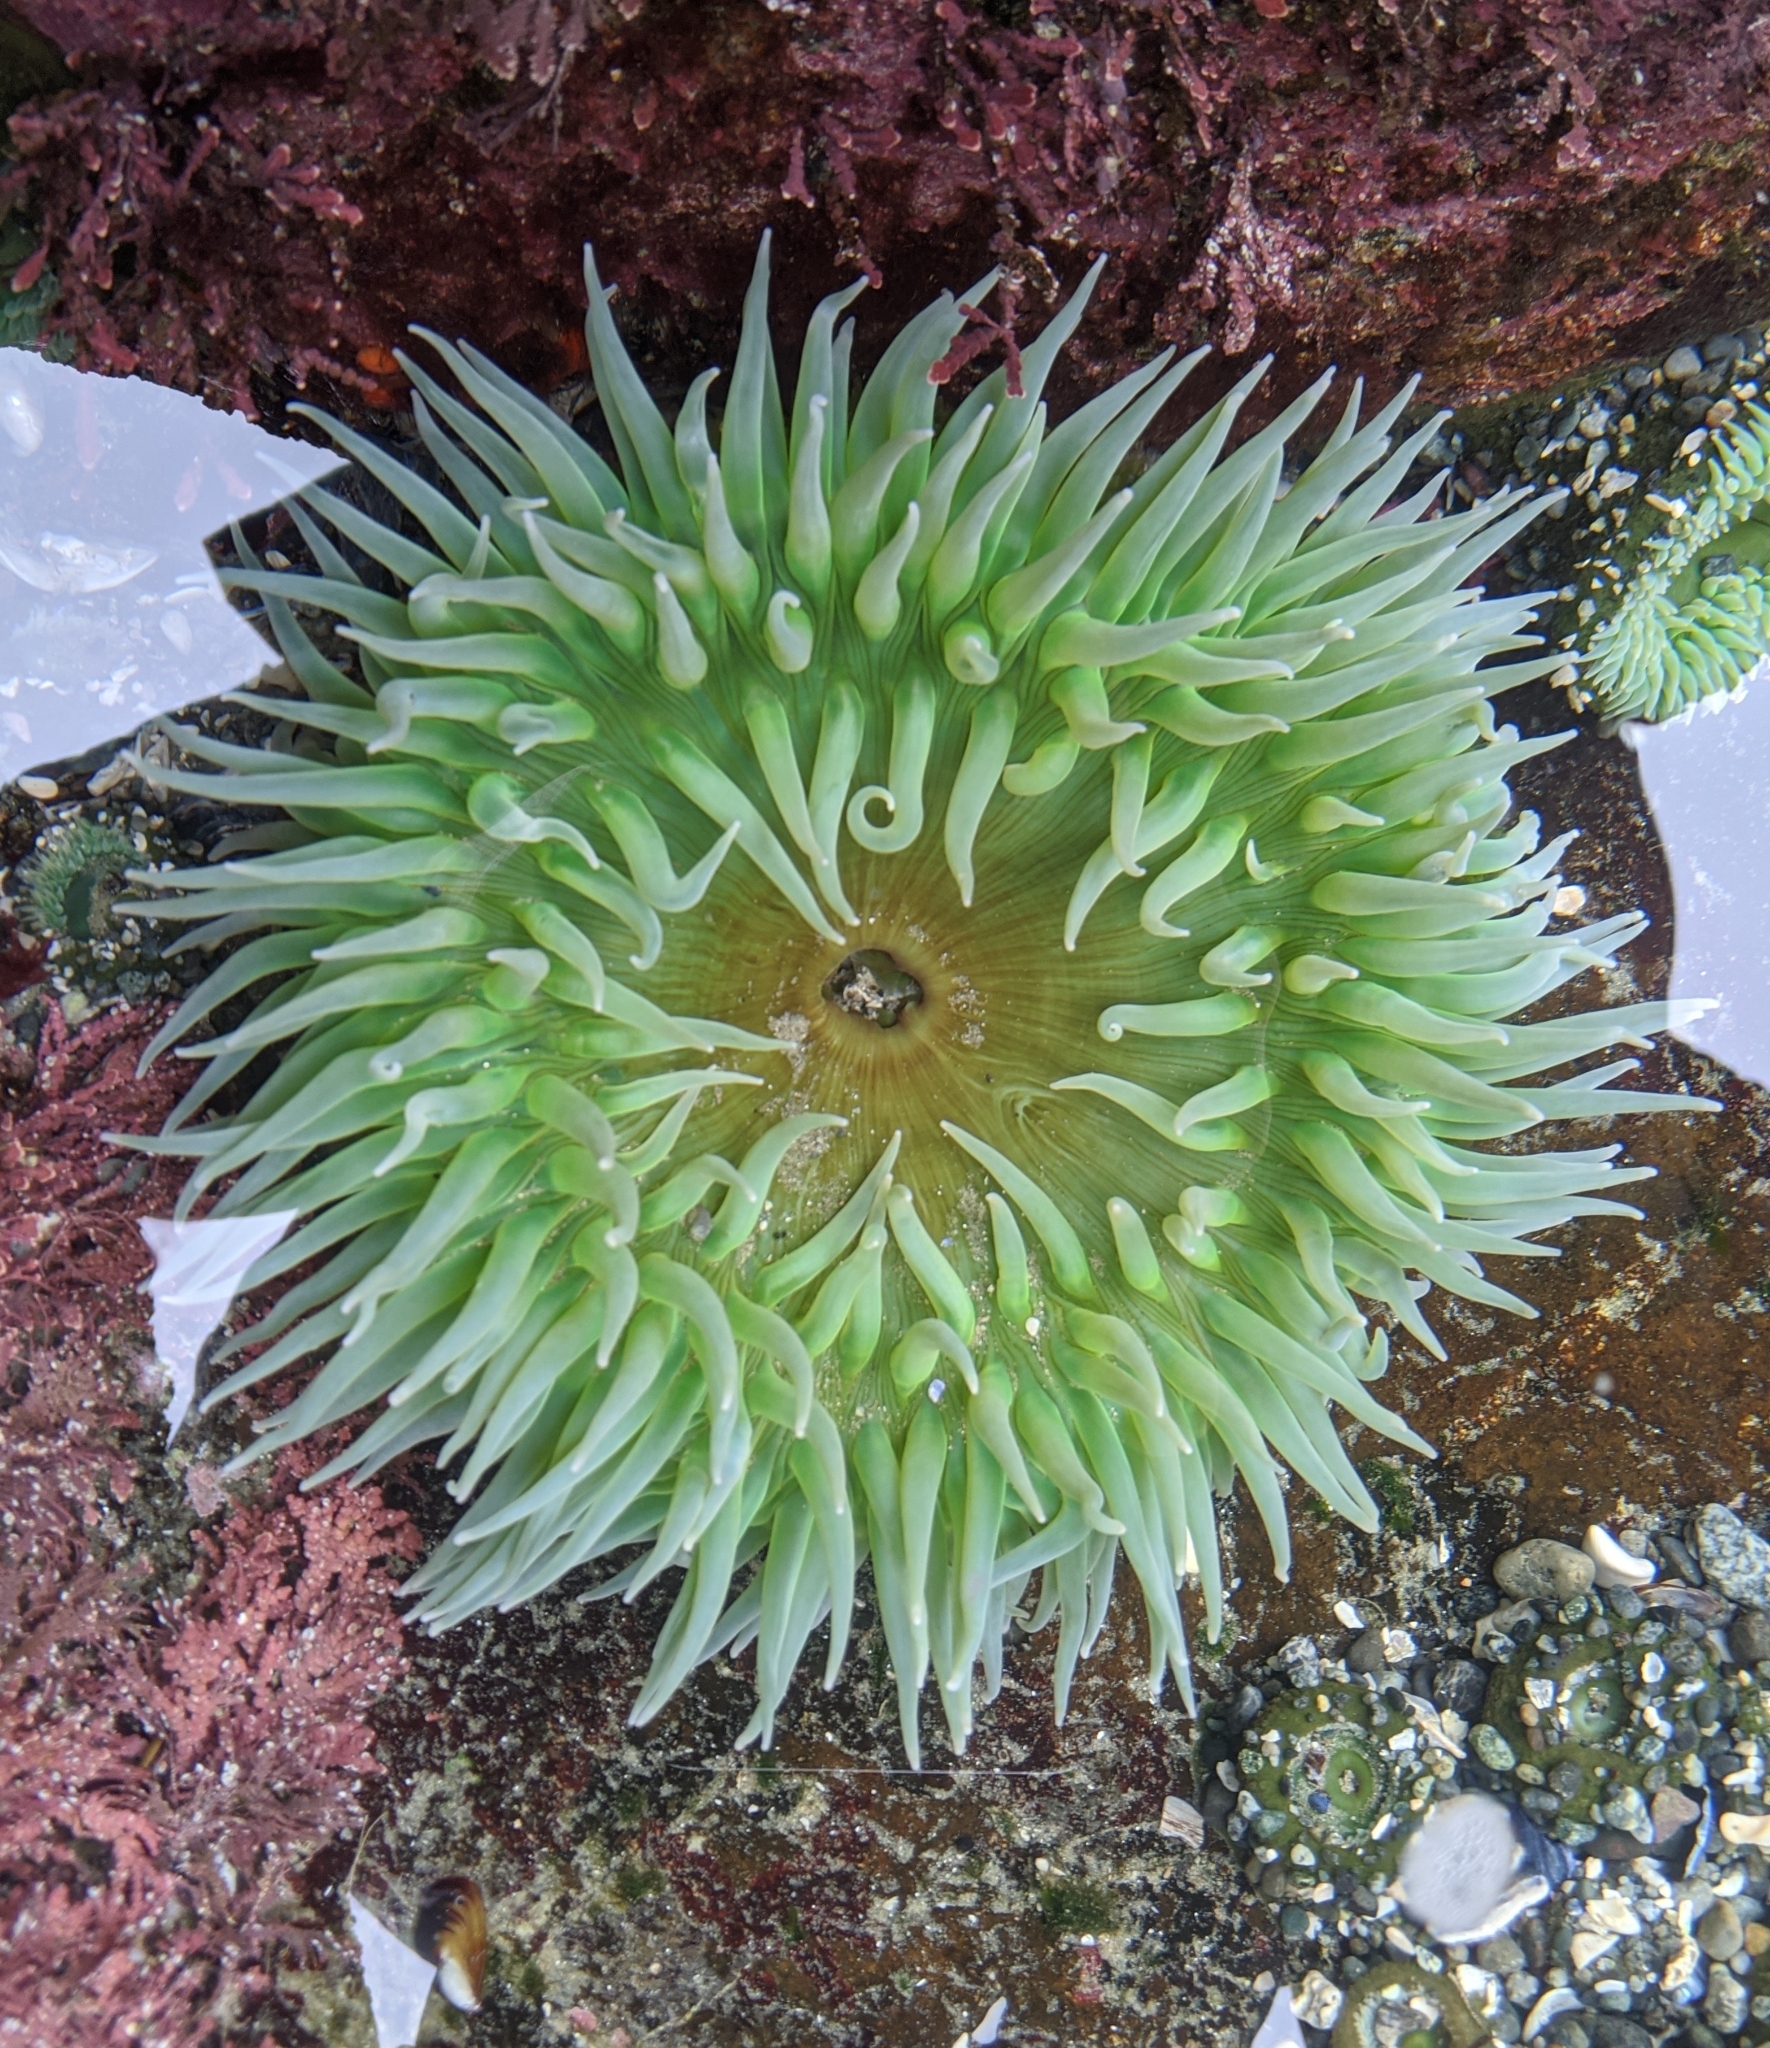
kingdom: Animalia
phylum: Cnidaria
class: Anthozoa
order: Actiniaria
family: Actiniidae
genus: Anthopleura
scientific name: Anthopleura xanthogrammica
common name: Giant green anemone
